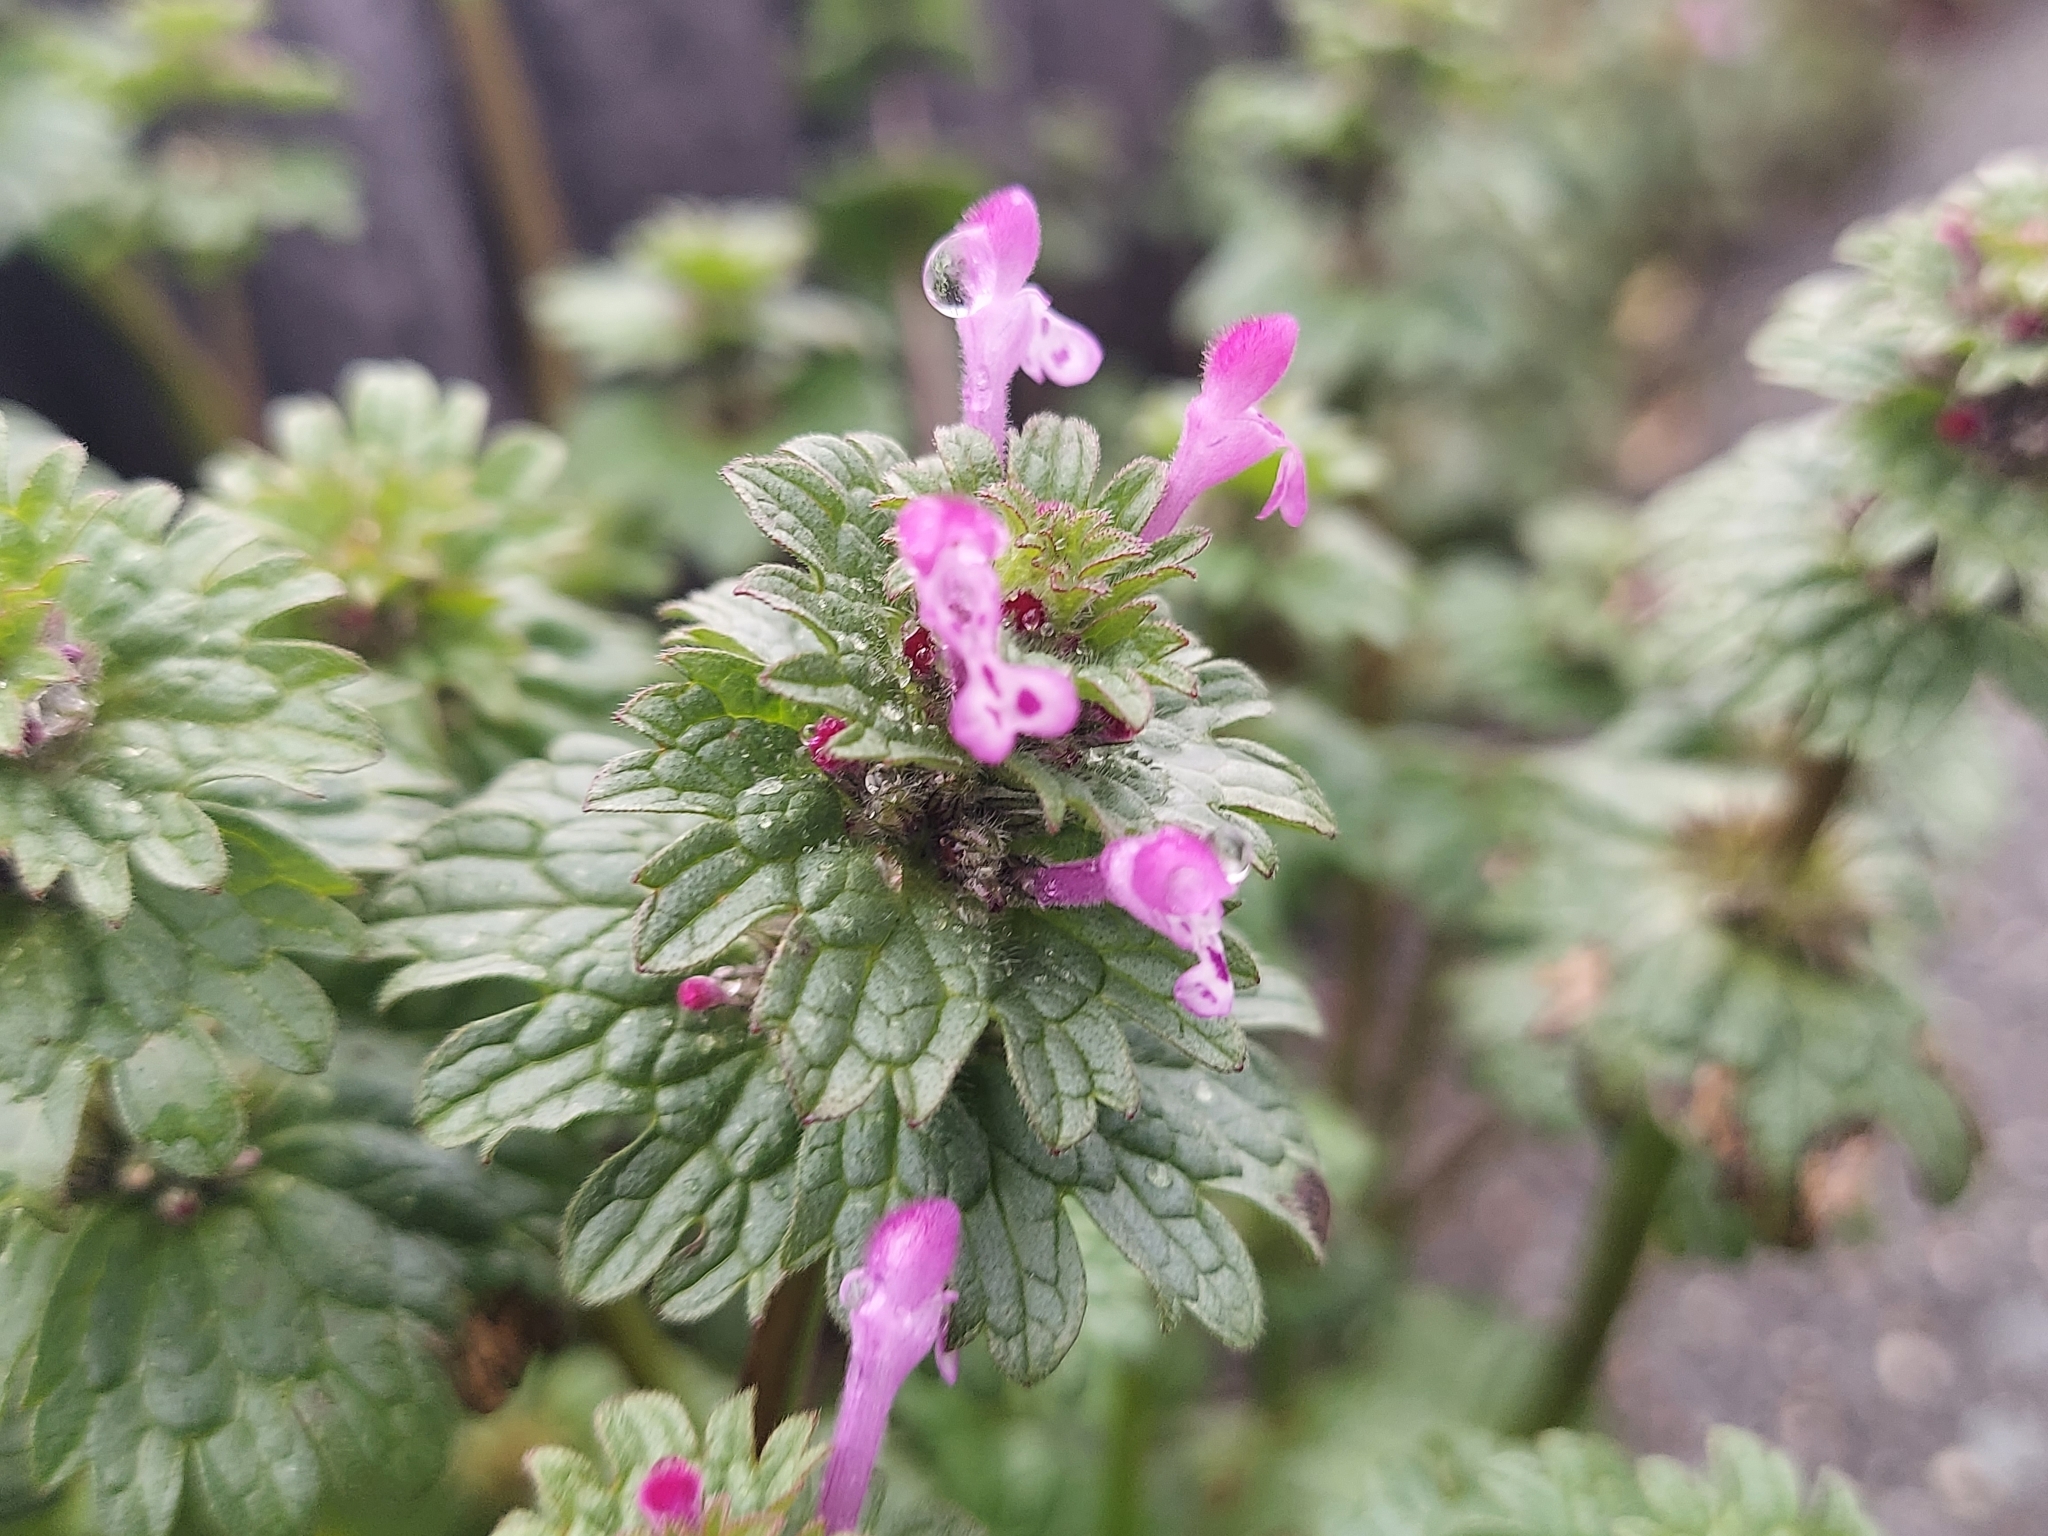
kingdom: Plantae
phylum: Tracheophyta
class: Magnoliopsida
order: Lamiales
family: Lamiaceae
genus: Lamium
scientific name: Lamium amplexicaule
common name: Henbit dead-nettle
